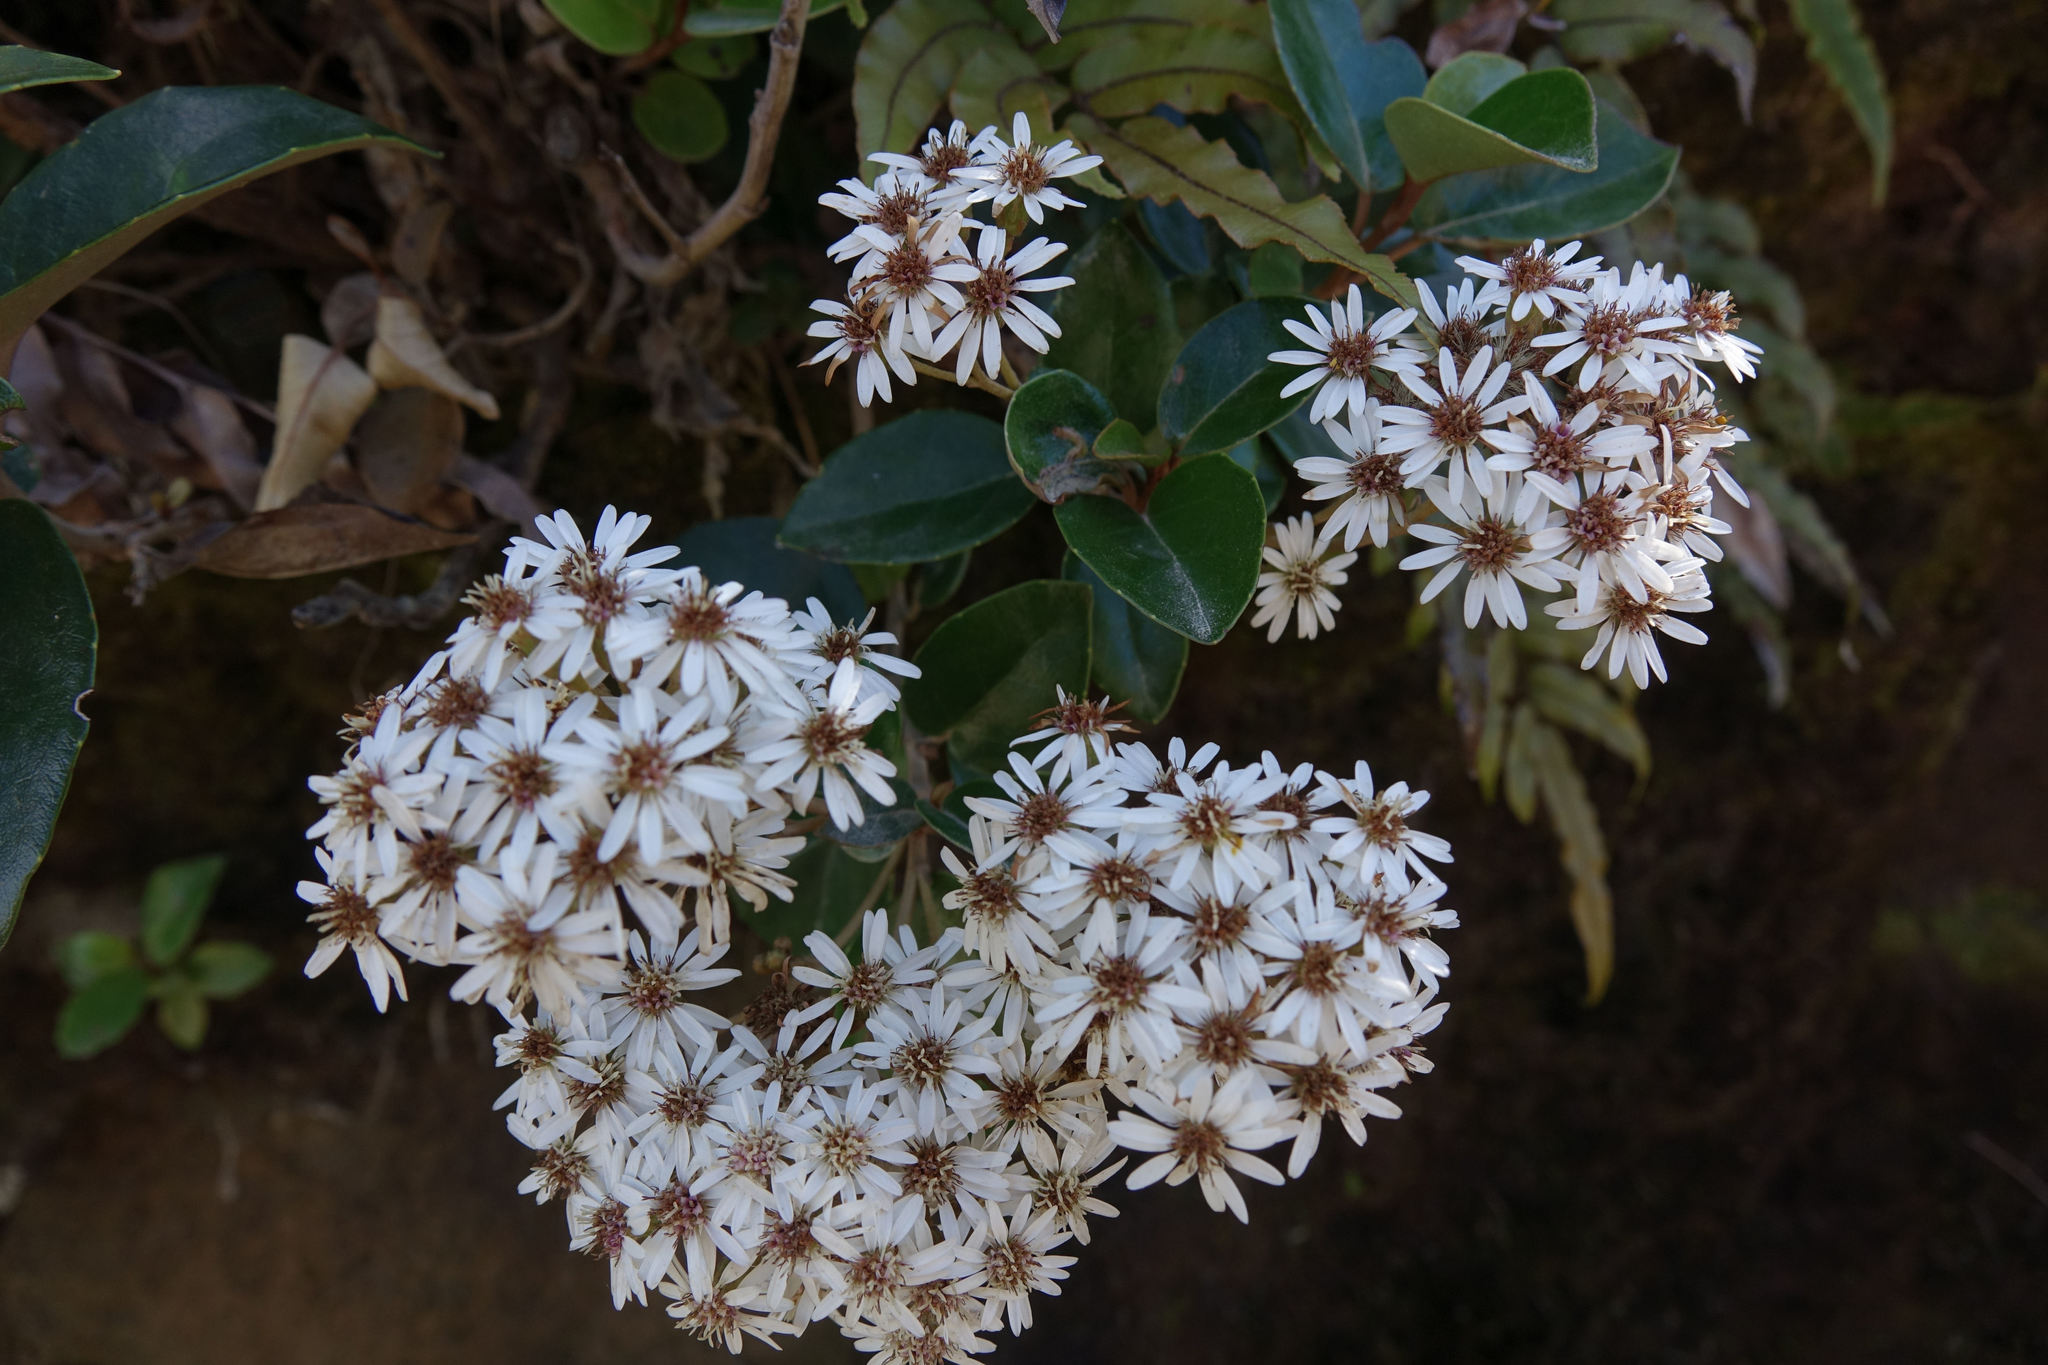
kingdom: Plantae
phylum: Tracheophyta
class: Magnoliopsida
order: Asterales
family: Asteraceae
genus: Olearia
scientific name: Olearia arborescens
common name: Glossy tree daisy
